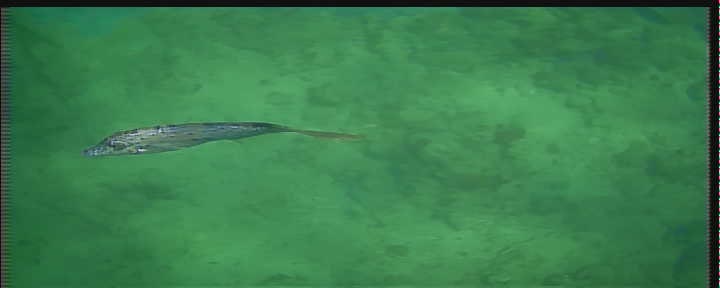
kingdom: Animalia
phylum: Chordata
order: Tetraodontiformes
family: Monacanthidae
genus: Aluterus
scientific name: Aluterus scriptus
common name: Scribbled leatherjacket filefish
